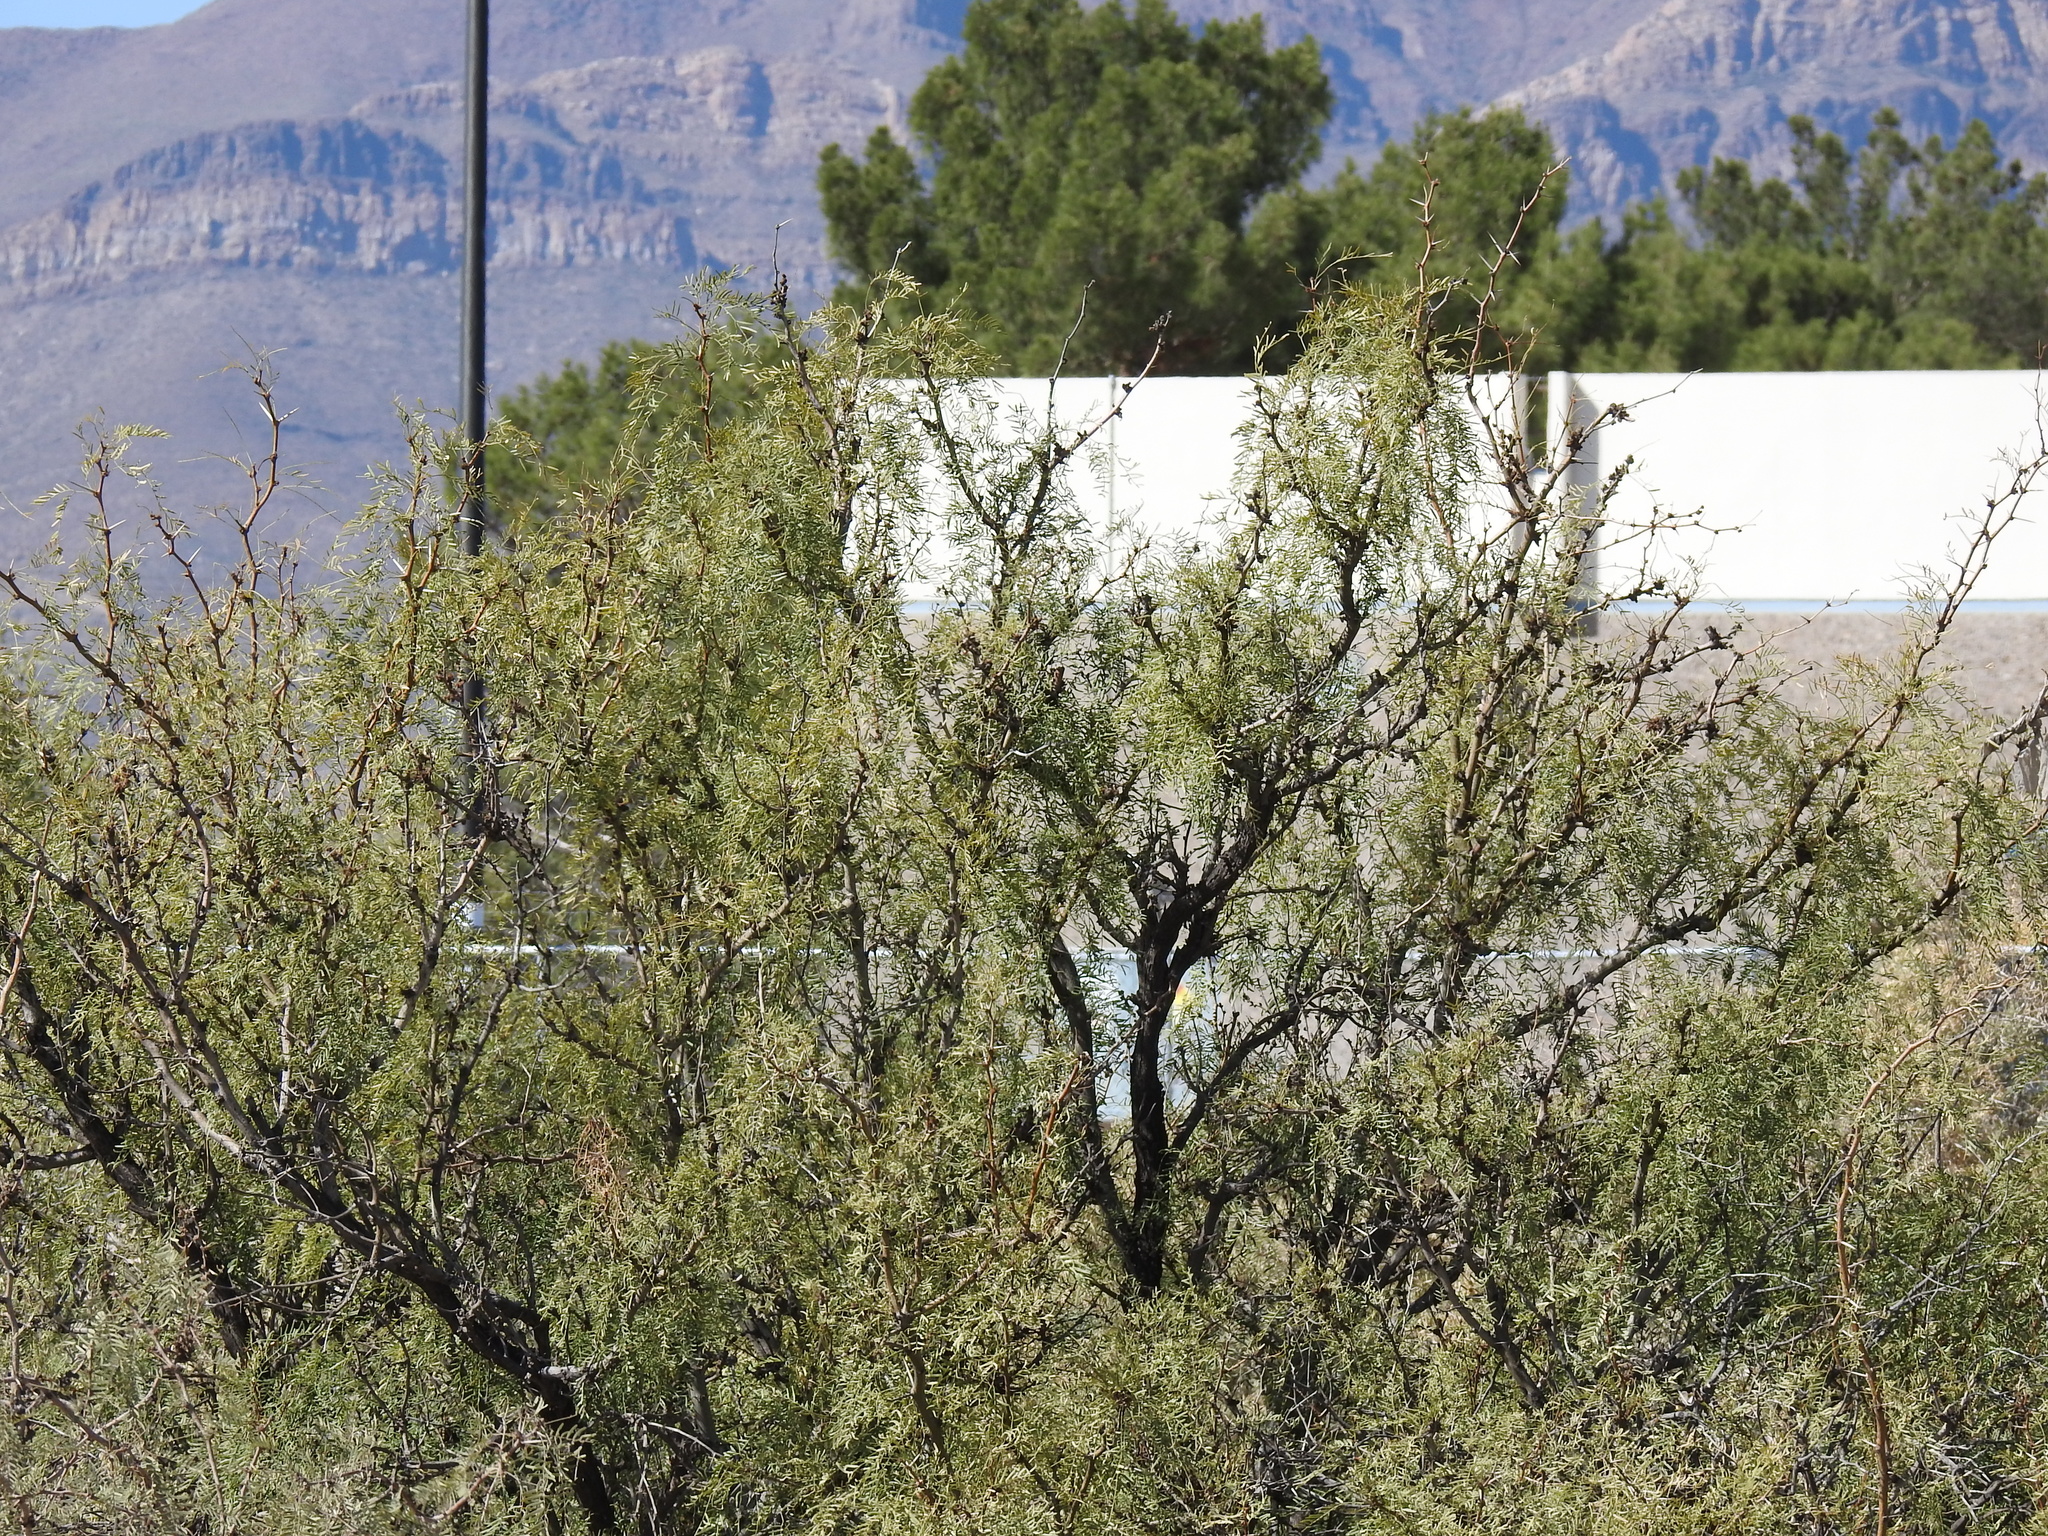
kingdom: Plantae
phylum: Tracheophyta
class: Magnoliopsida
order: Fabales
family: Fabaceae
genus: Prosopis
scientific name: Prosopis glandulosa
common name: Honey mesquite
